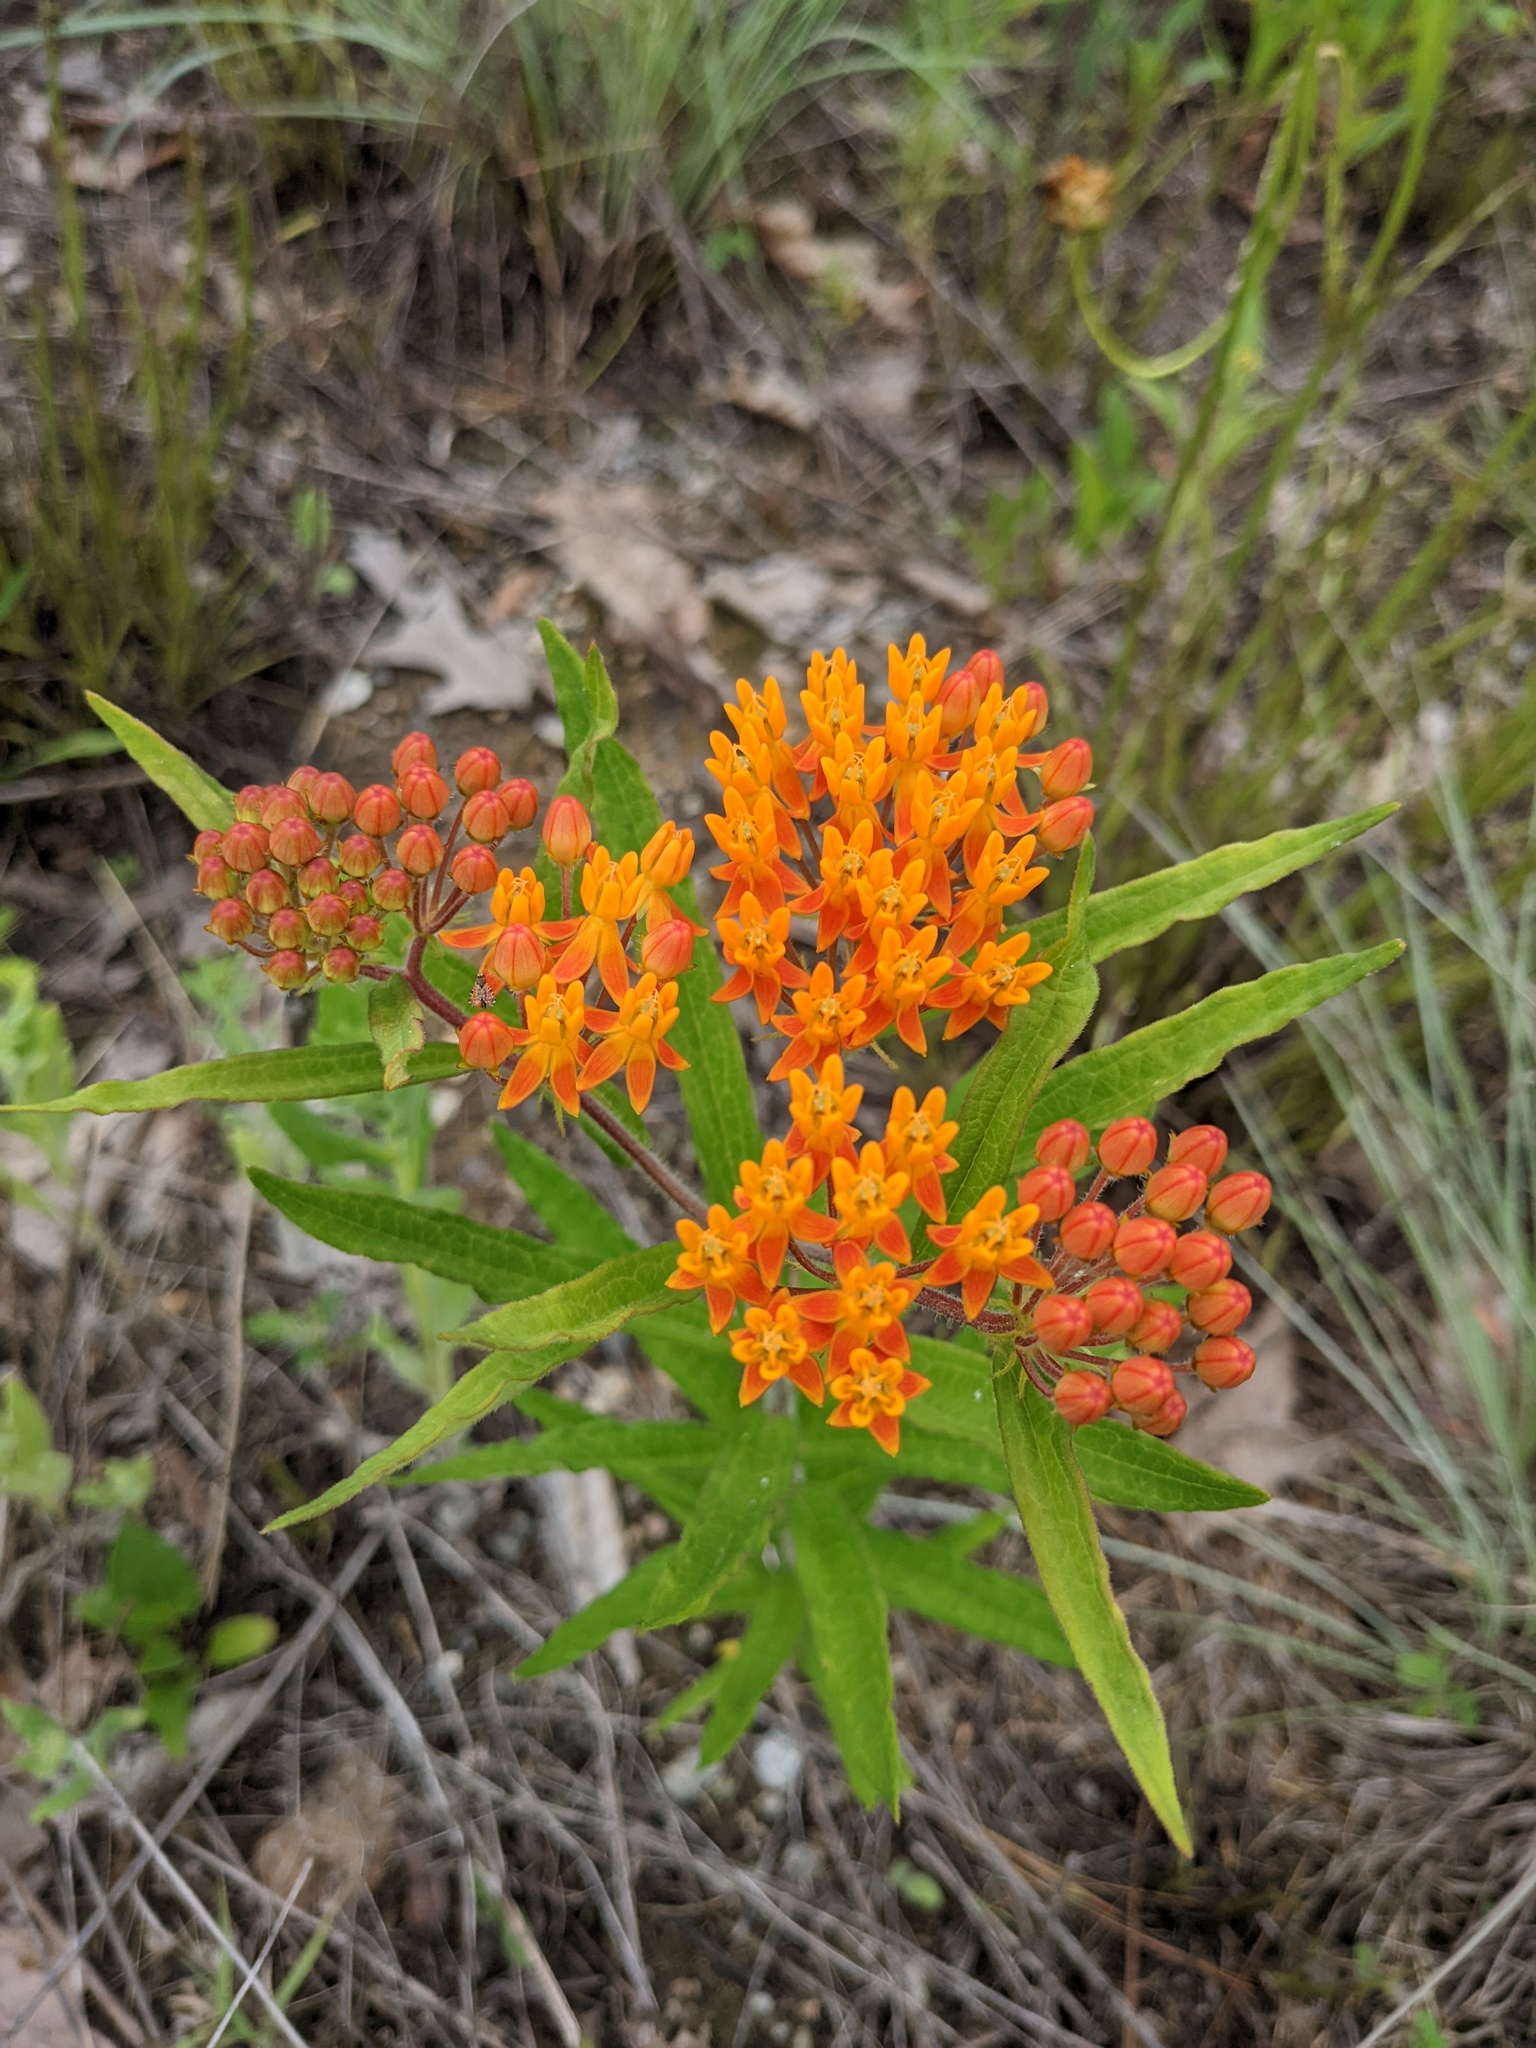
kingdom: Plantae
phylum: Tracheophyta
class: Magnoliopsida
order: Gentianales
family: Apocynaceae
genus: Asclepias
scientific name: Asclepias tuberosa
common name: Butterfly milkweed
